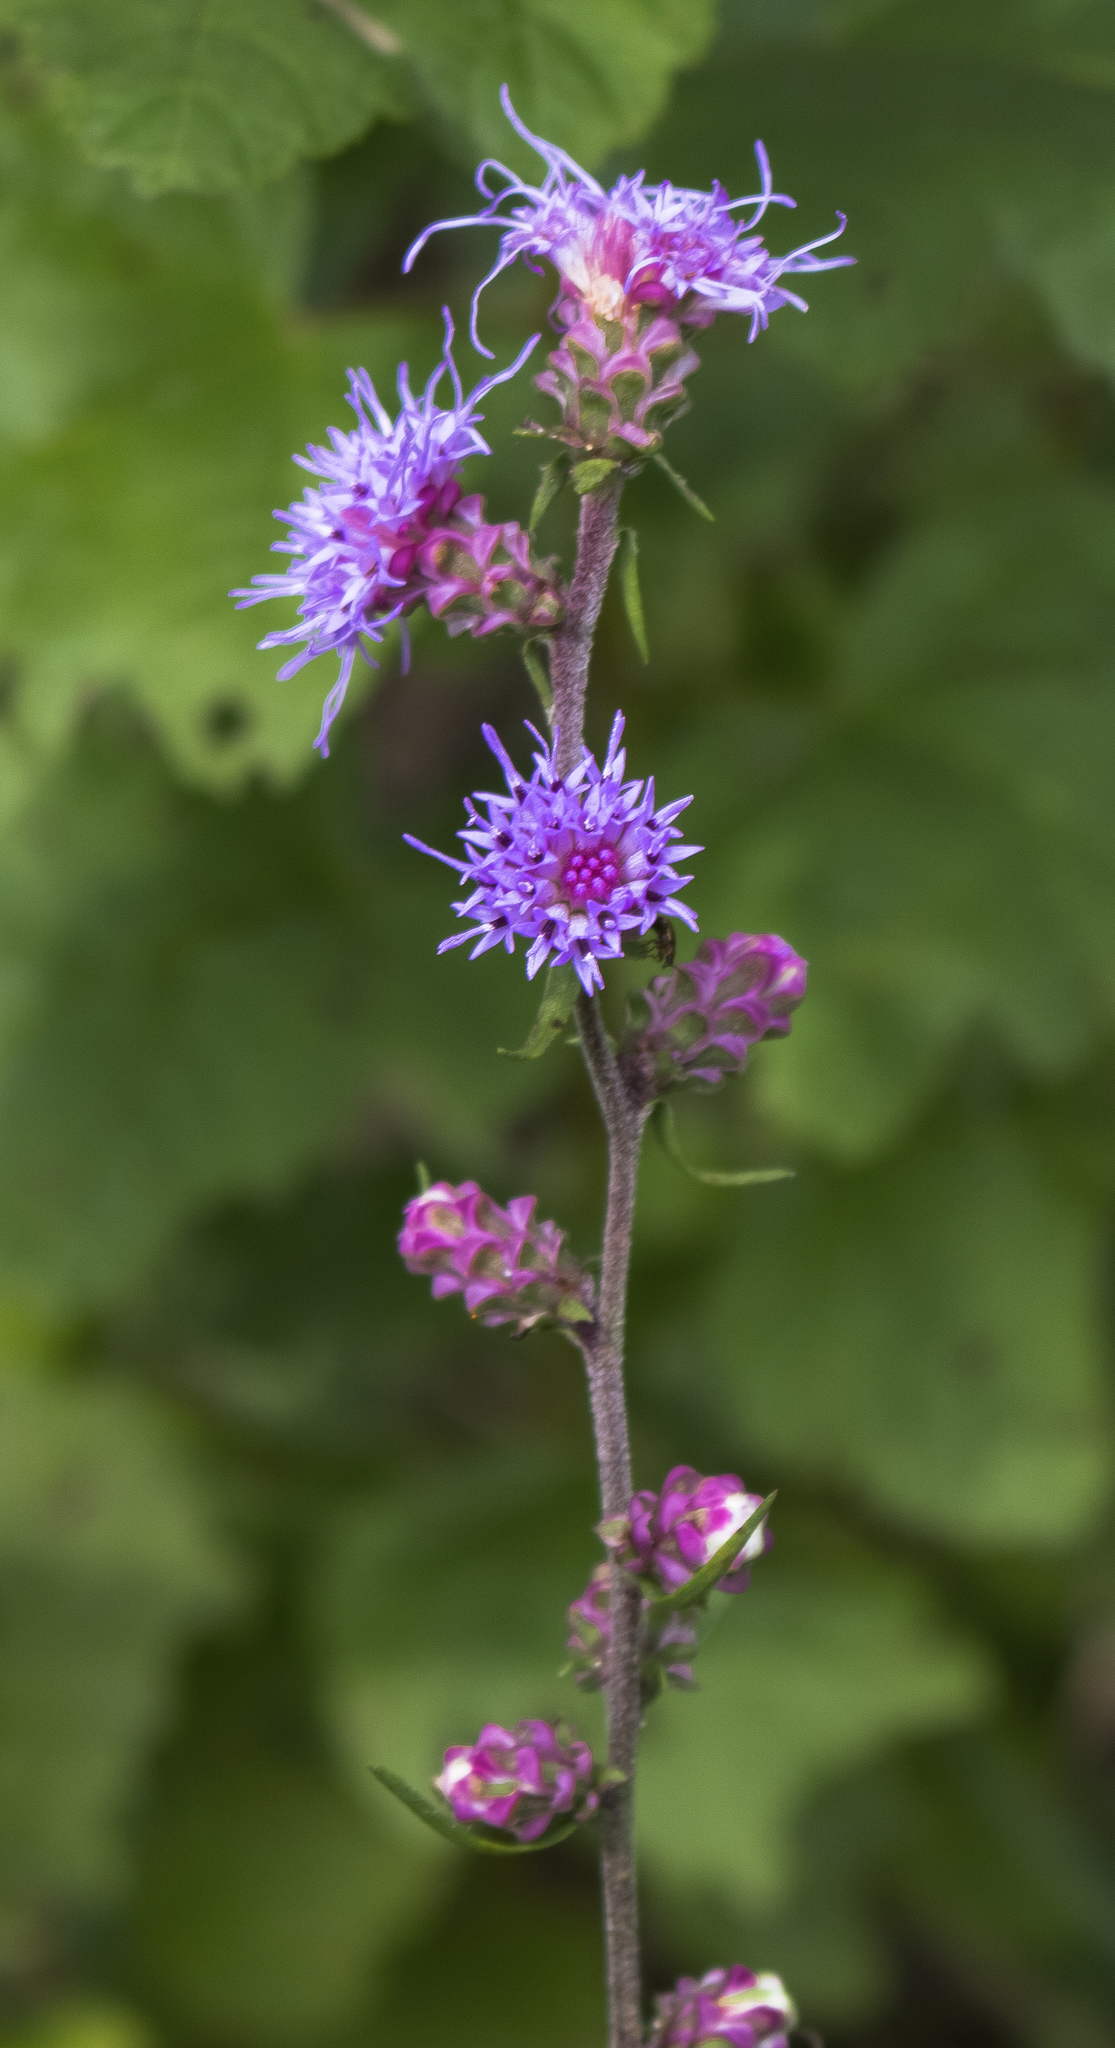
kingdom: Plantae
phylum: Tracheophyta
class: Magnoliopsida
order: Asterales
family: Asteraceae
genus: Liatris
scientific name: Liatris aspera
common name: Lacerate blazing-star
